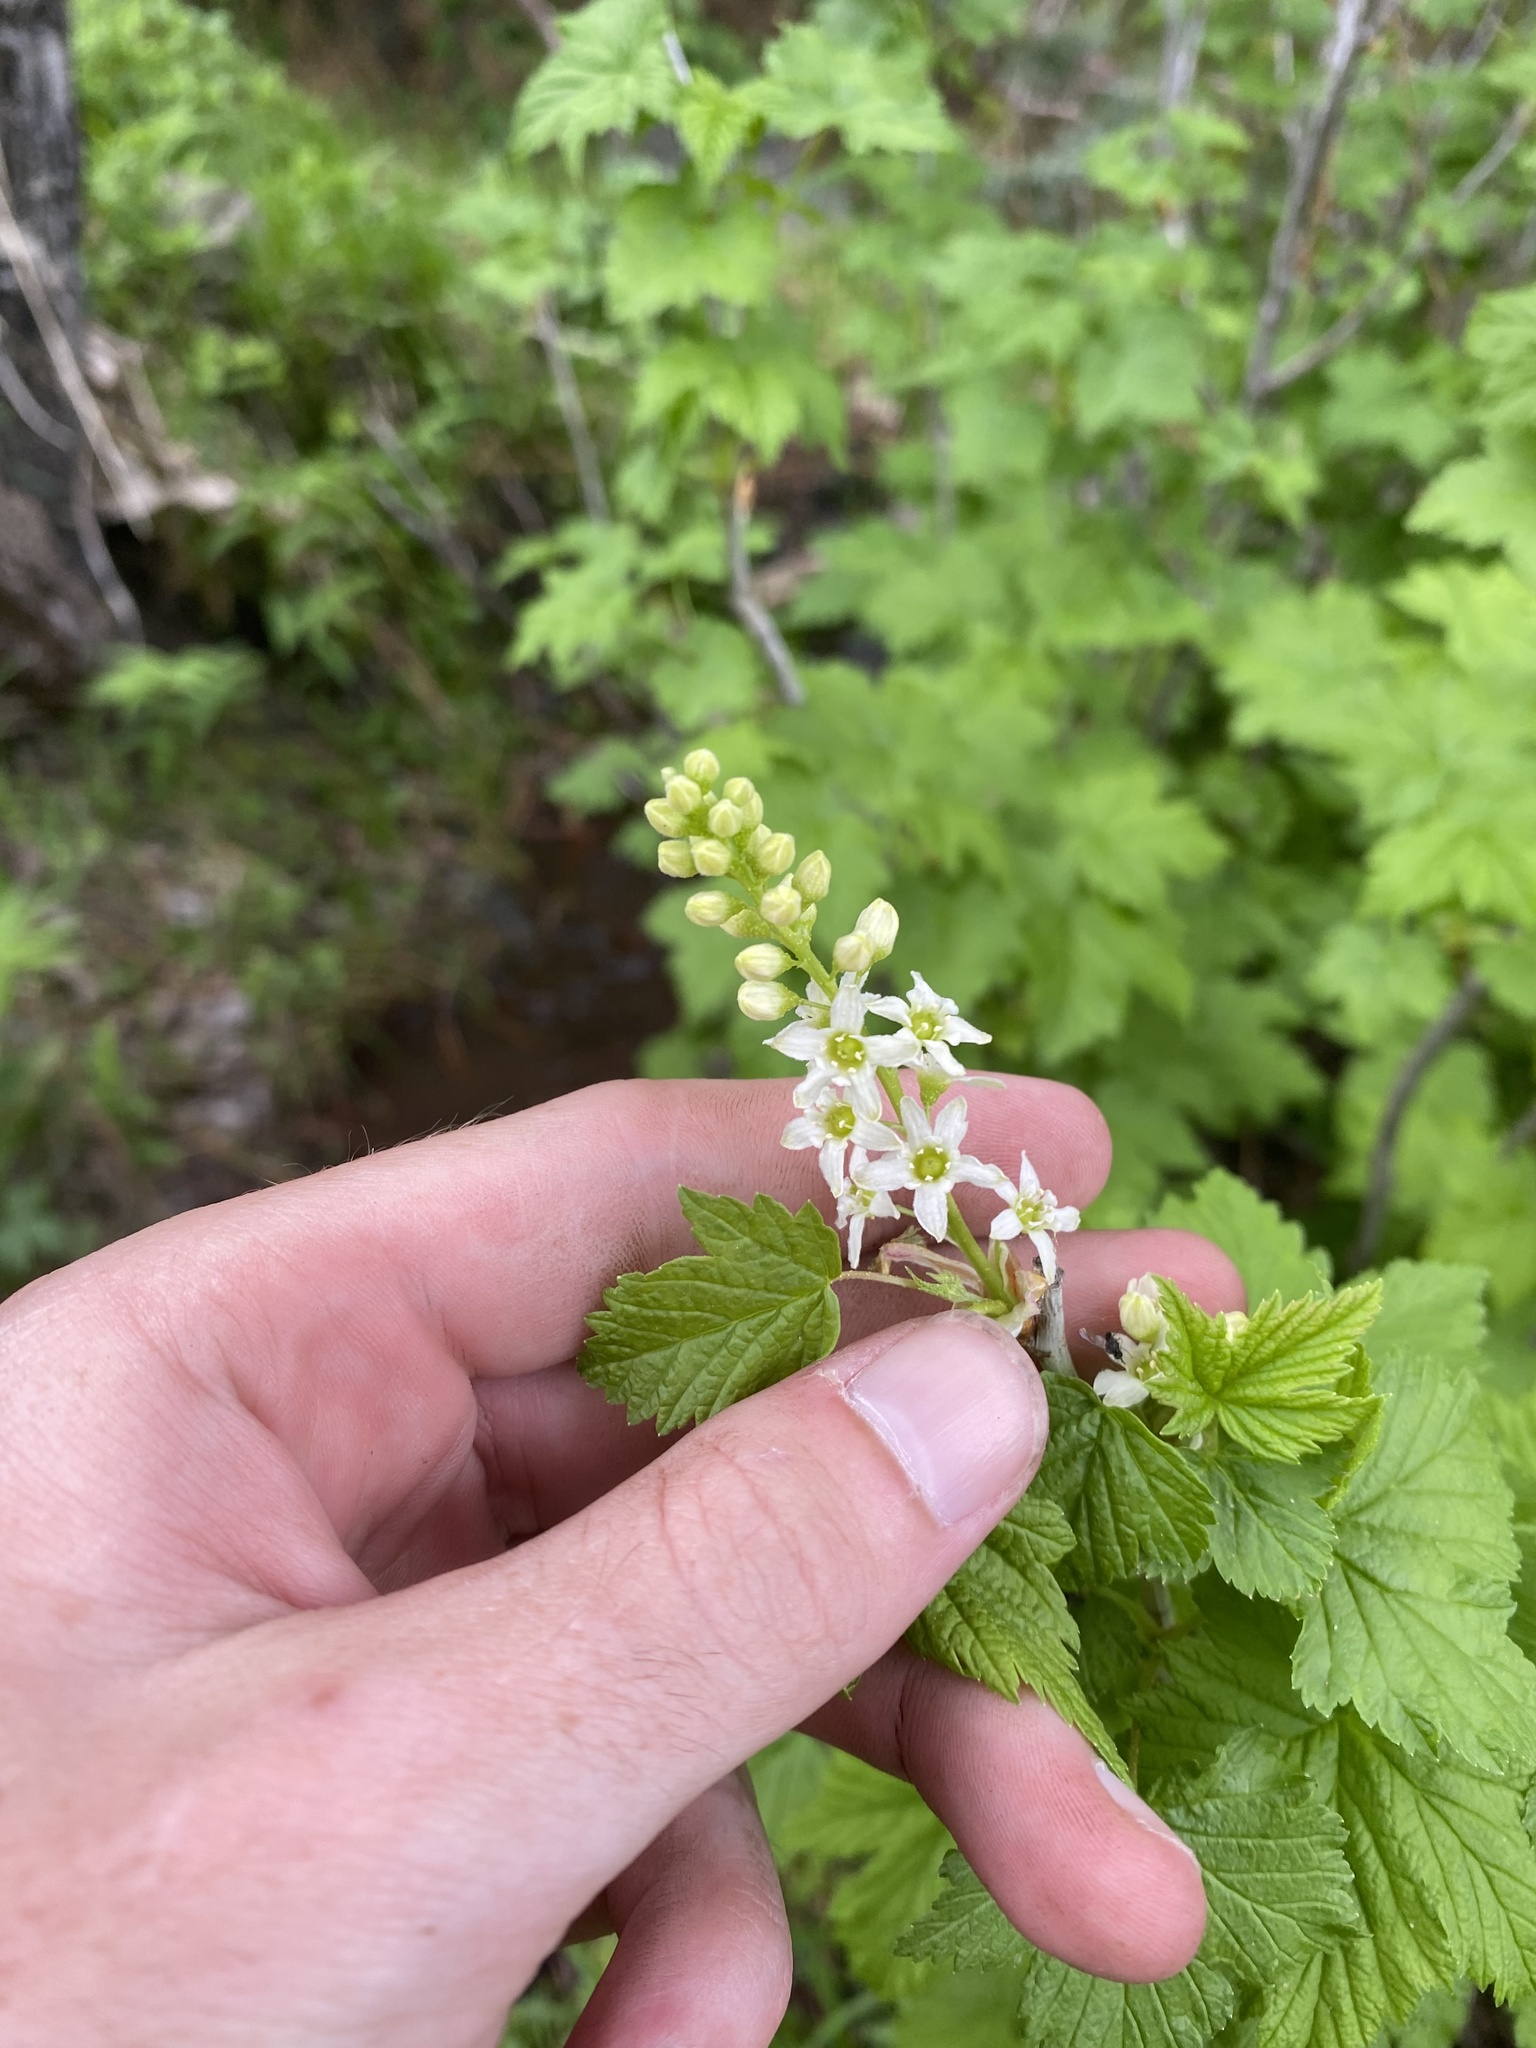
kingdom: Plantae
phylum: Tracheophyta
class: Magnoliopsida
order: Saxifragales
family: Grossulariaceae
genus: Ribes
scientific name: Ribes hudsonianum
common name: Northern black currant
